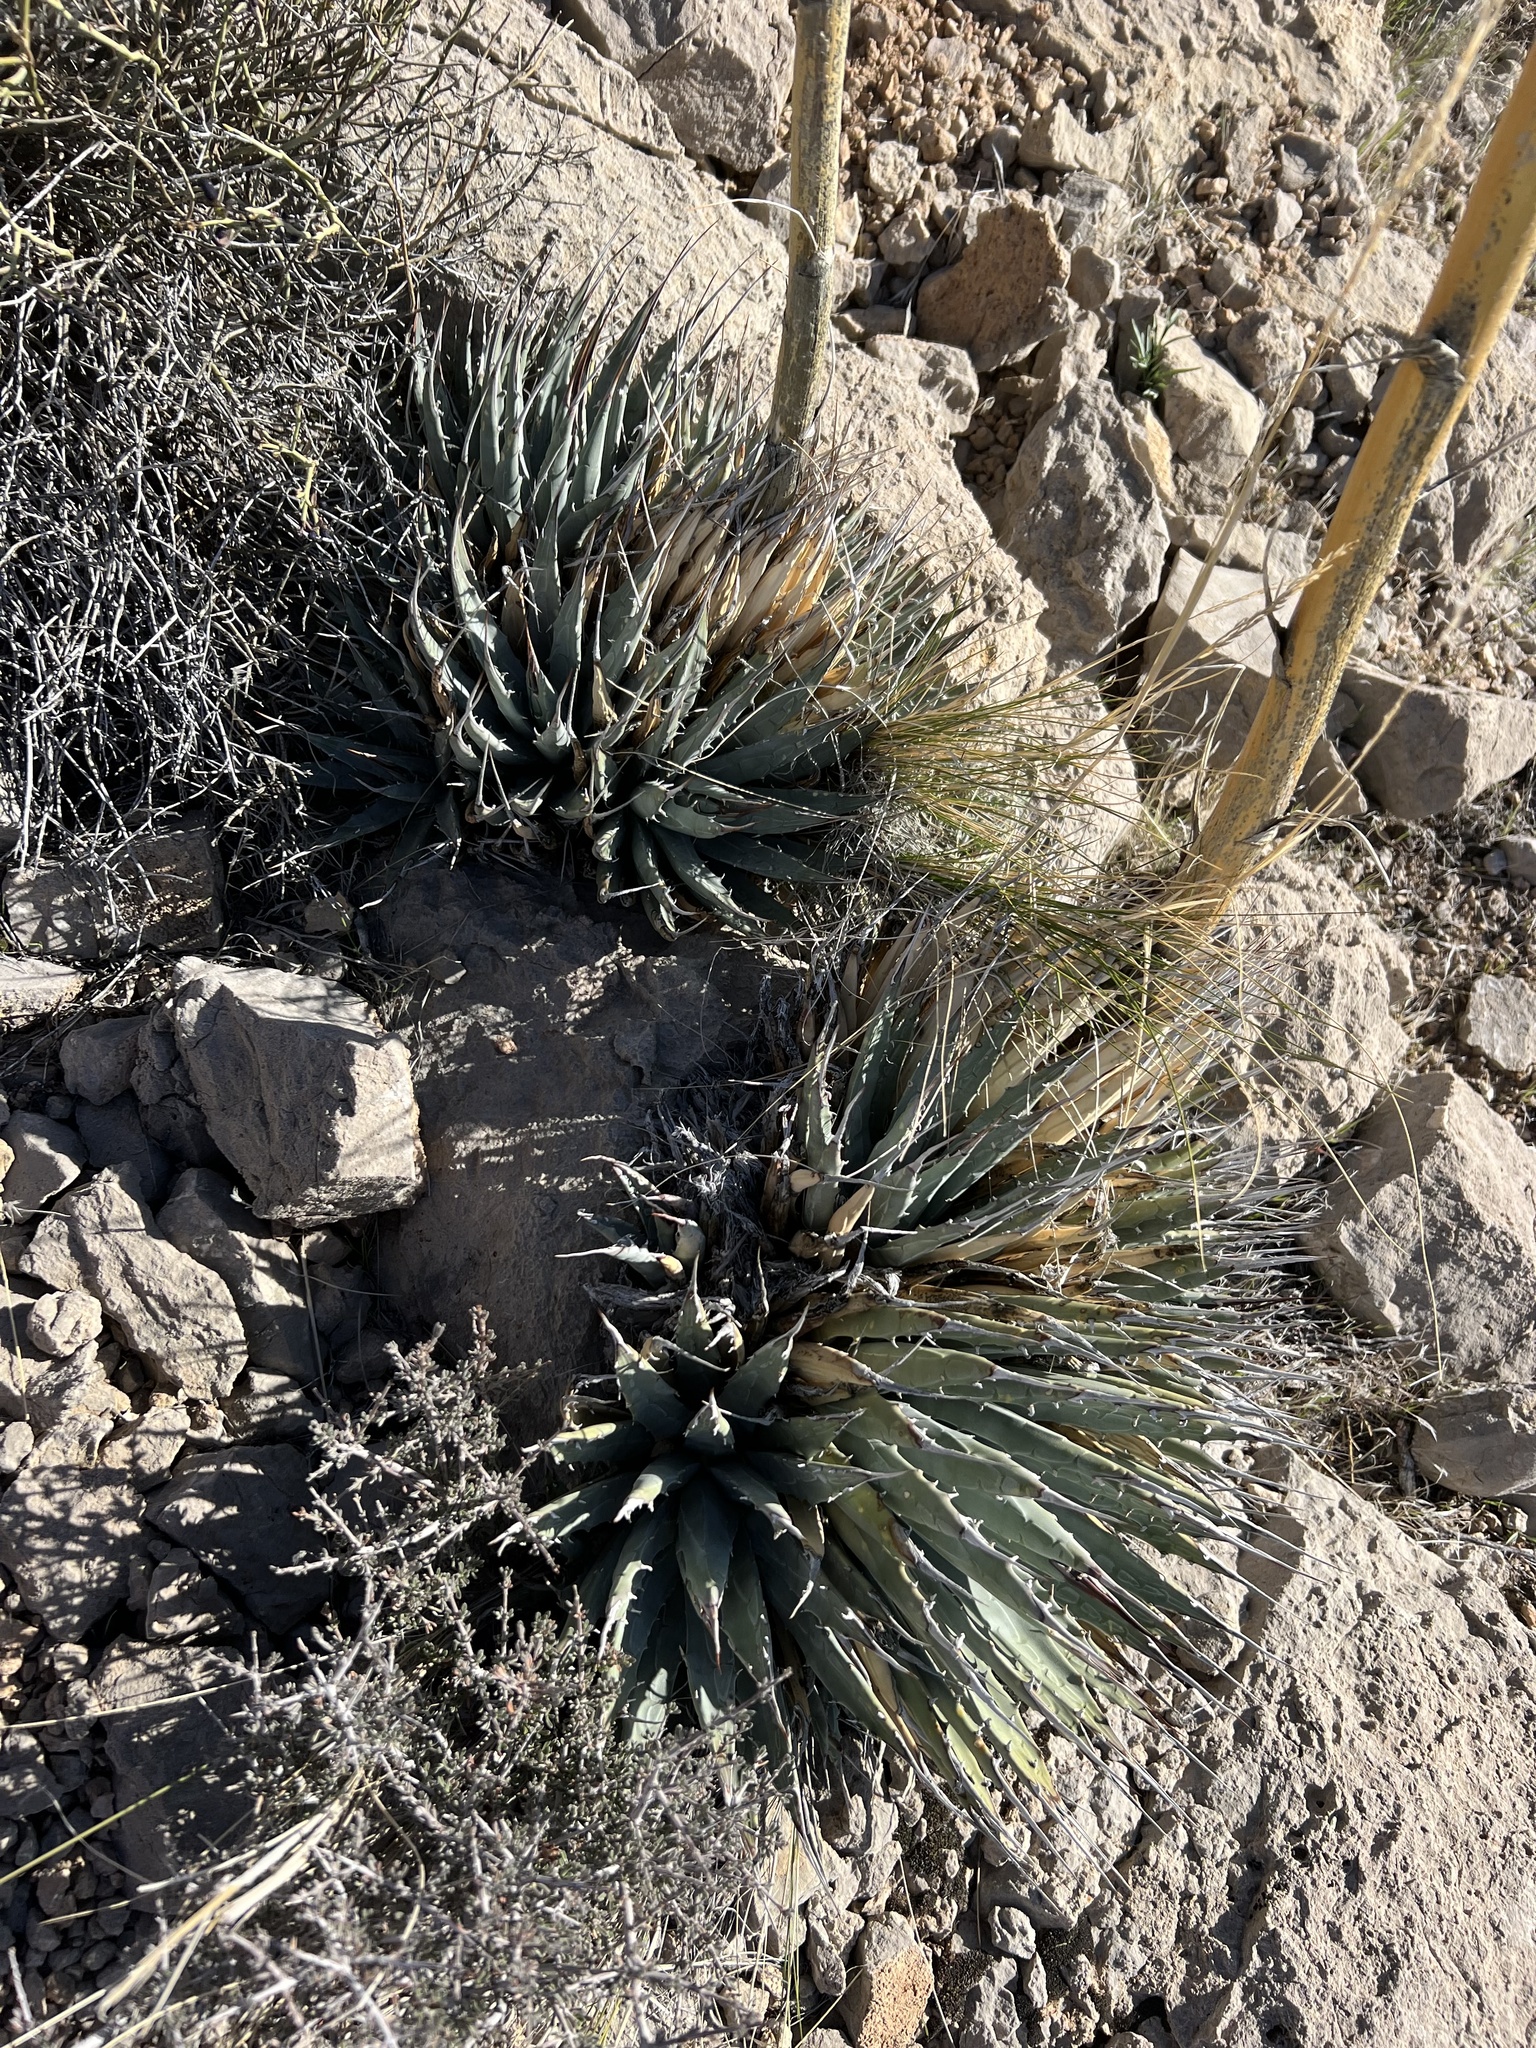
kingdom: Plantae
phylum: Tracheophyta
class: Liliopsida
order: Asparagales
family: Asparagaceae
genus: Agave
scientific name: Agave utahensis
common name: Utah agave
